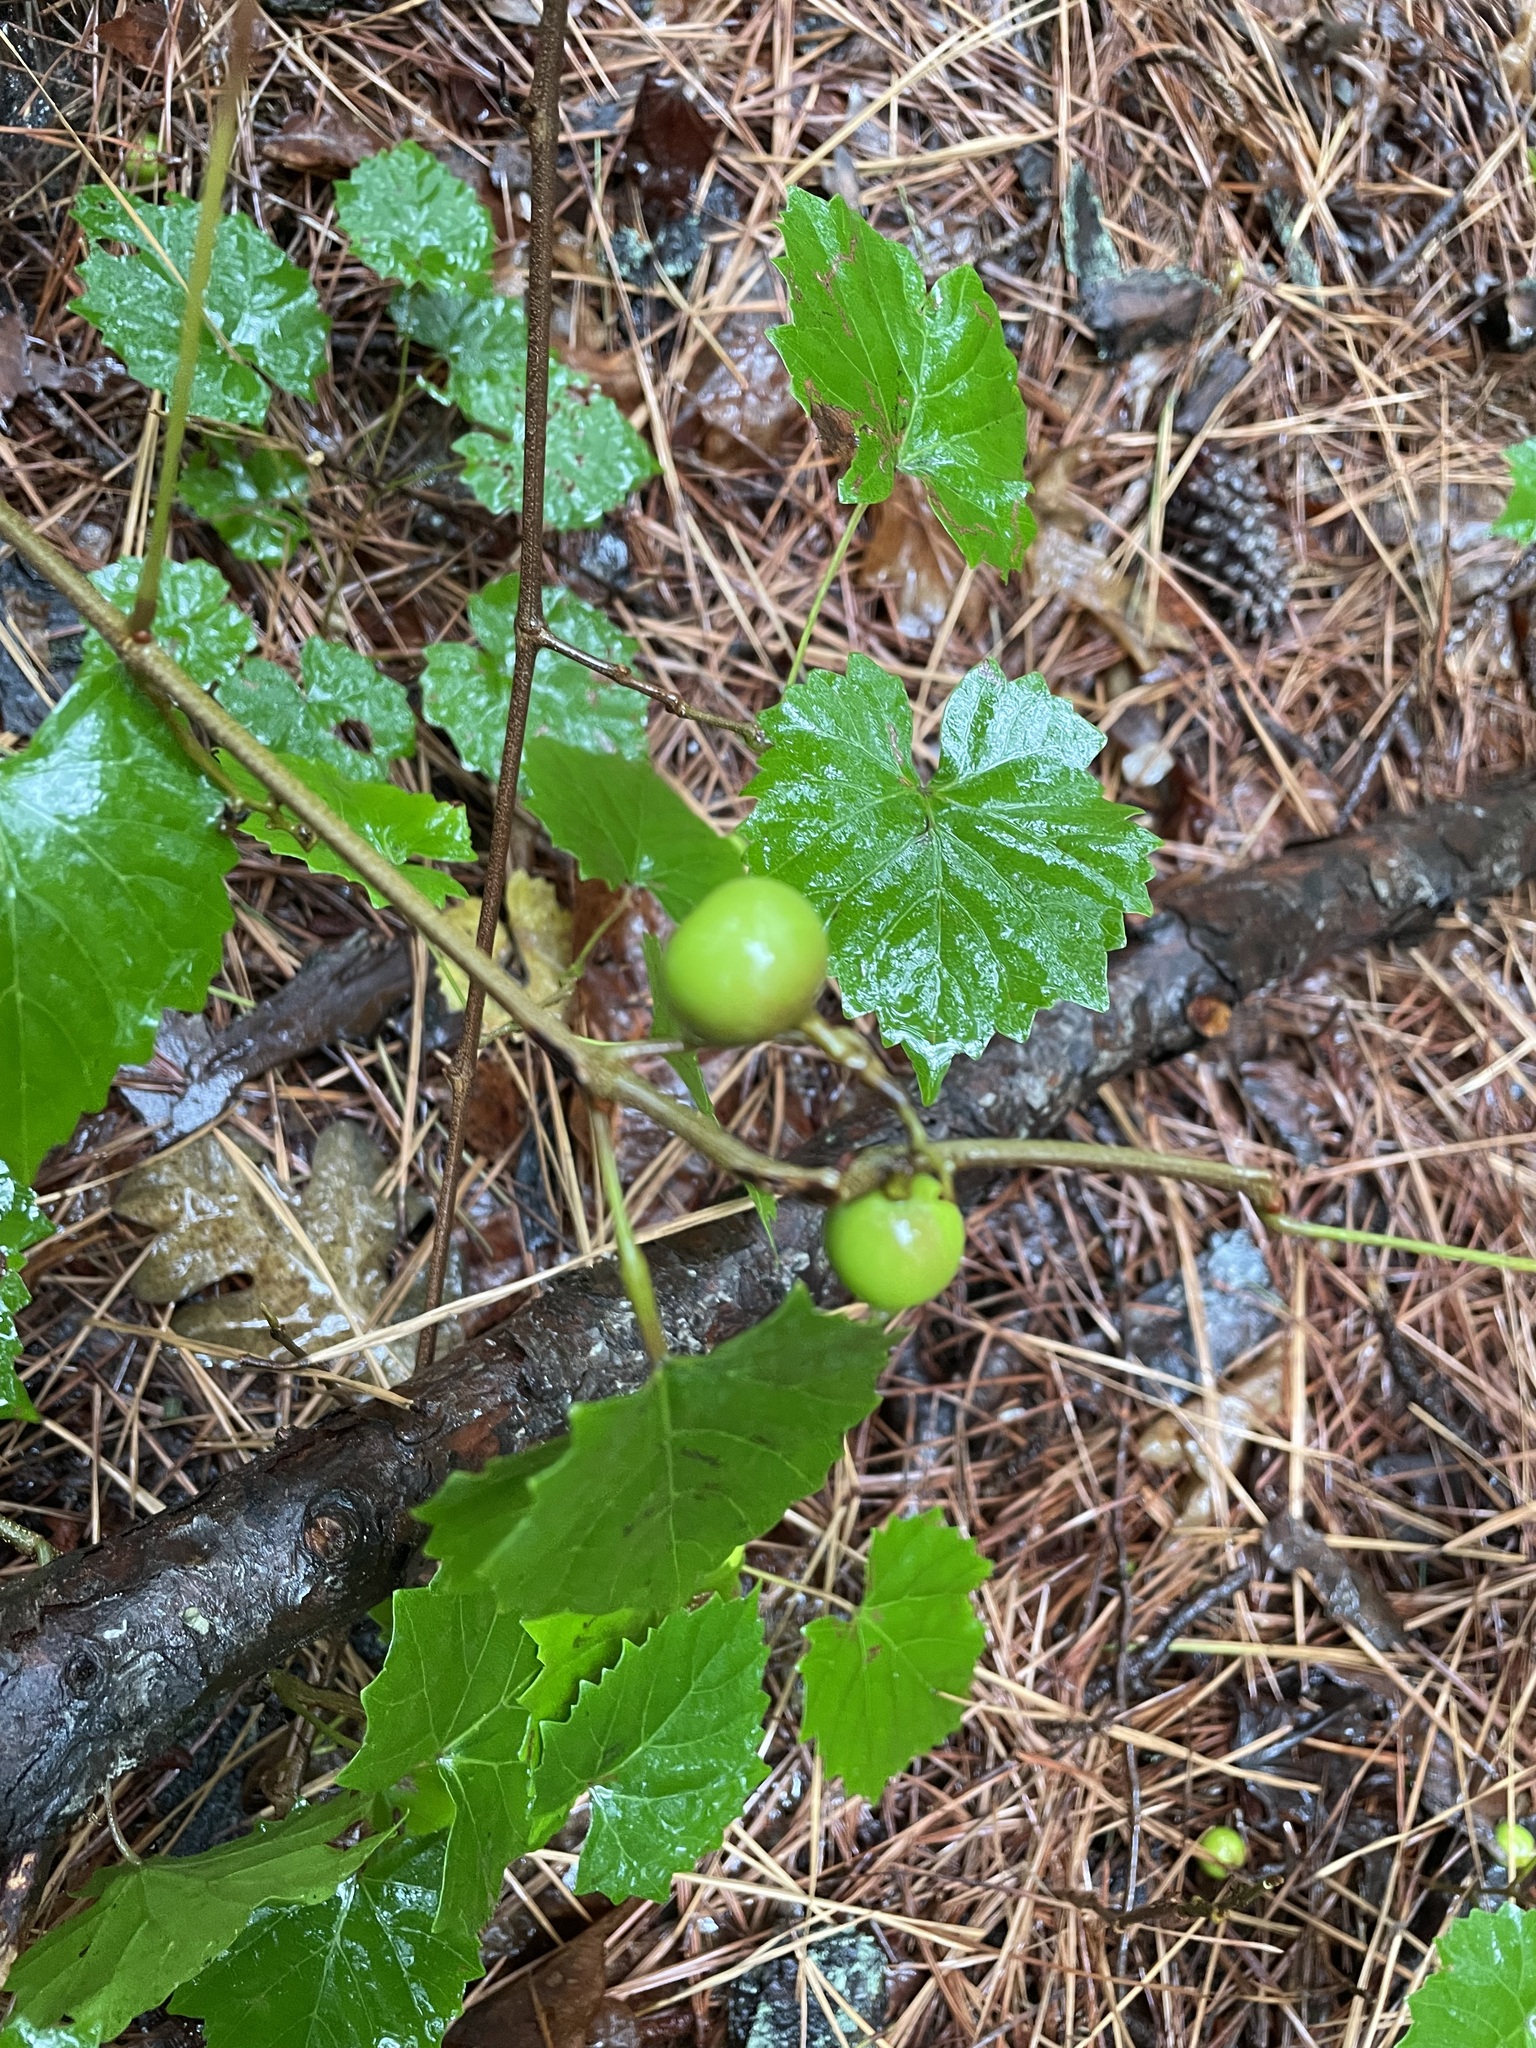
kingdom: Plantae
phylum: Tracheophyta
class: Magnoliopsida
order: Vitales
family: Vitaceae
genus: Vitis
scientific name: Vitis rotundifolia
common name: Muscadine grape
